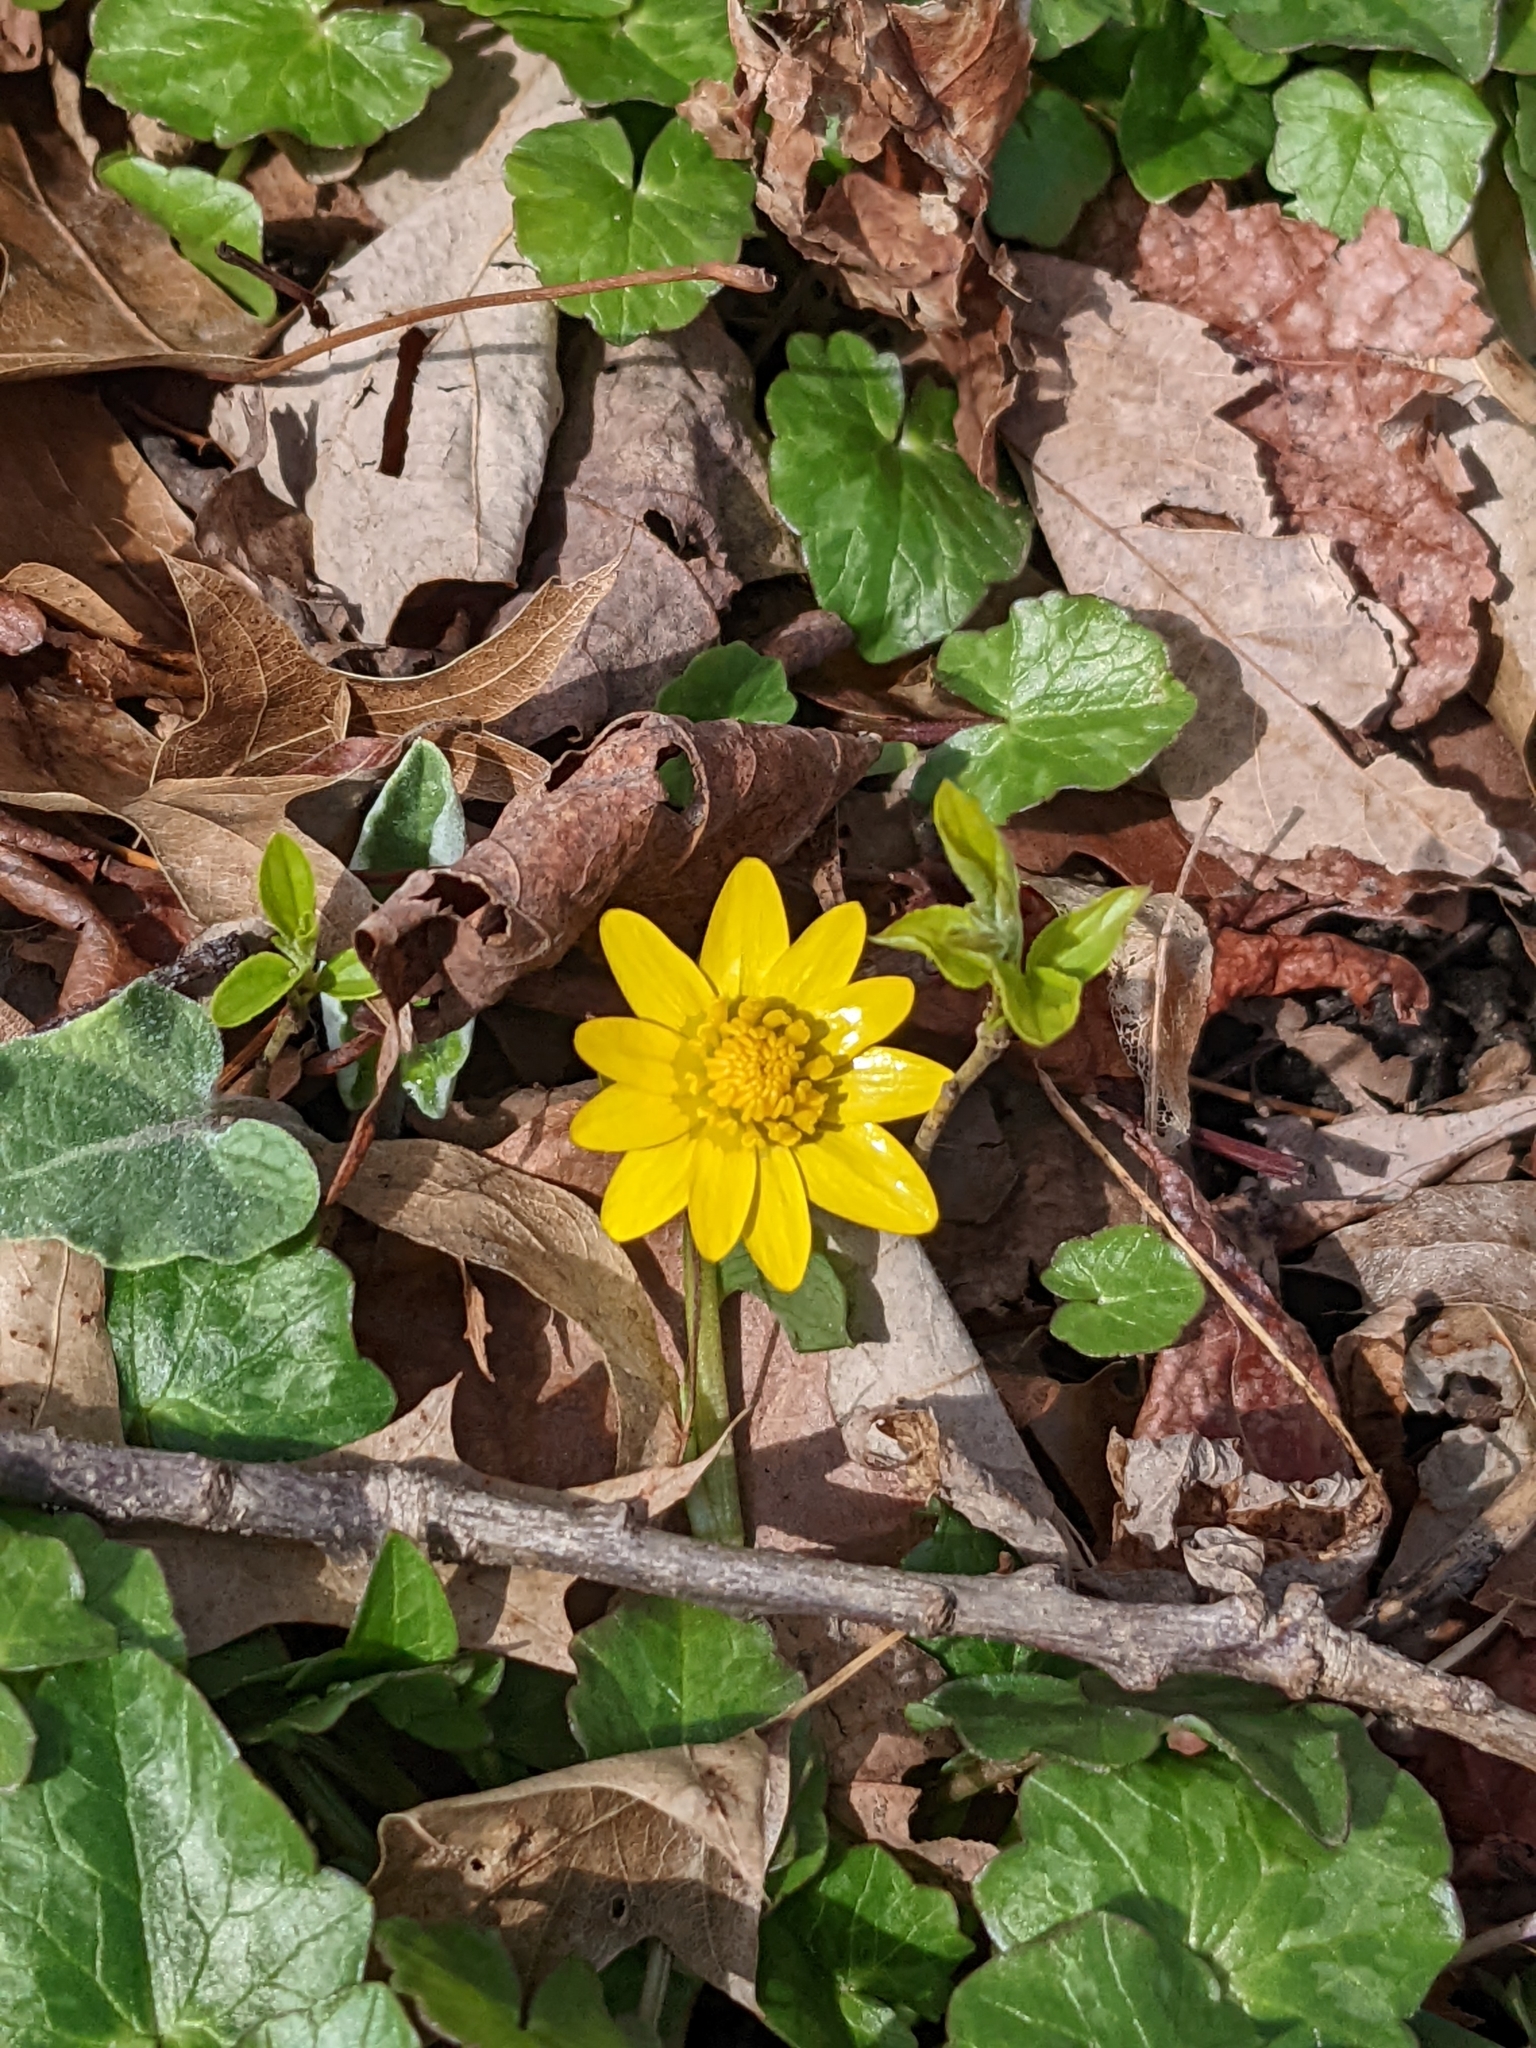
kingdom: Plantae
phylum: Tracheophyta
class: Magnoliopsida
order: Ranunculales
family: Ranunculaceae
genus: Ficaria
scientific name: Ficaria verna
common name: Lesser celandine
